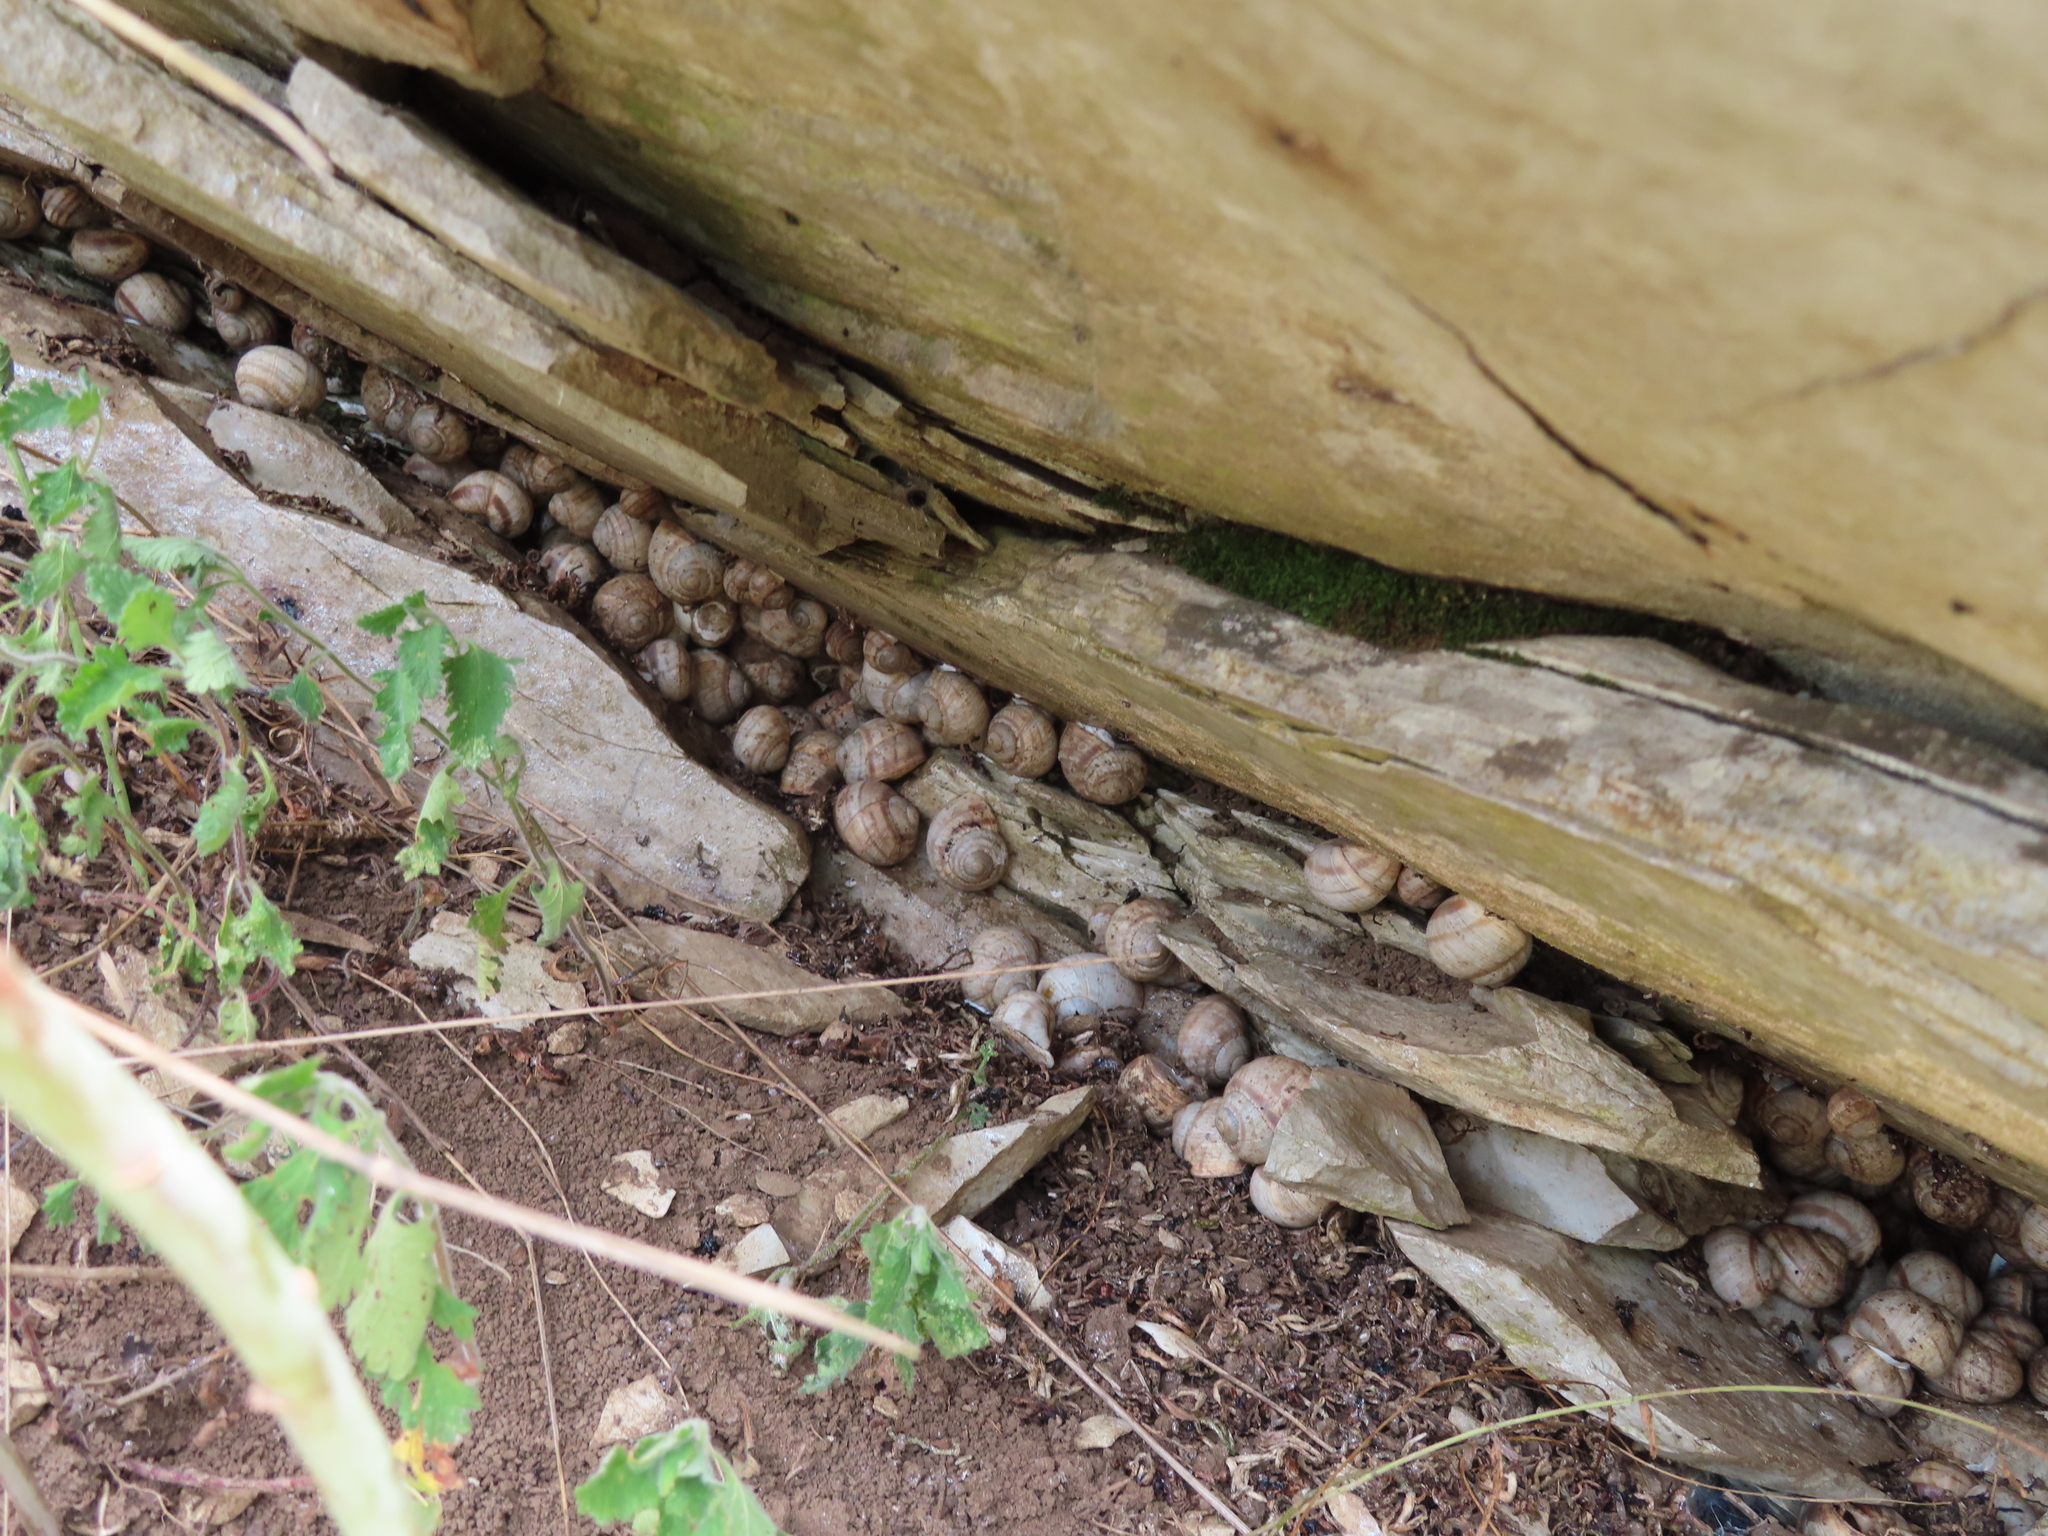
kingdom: Animalia
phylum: Mollusca
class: Gastropoda
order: Stylommatophora
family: Helicidae
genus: Helix
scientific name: Helix albescens
